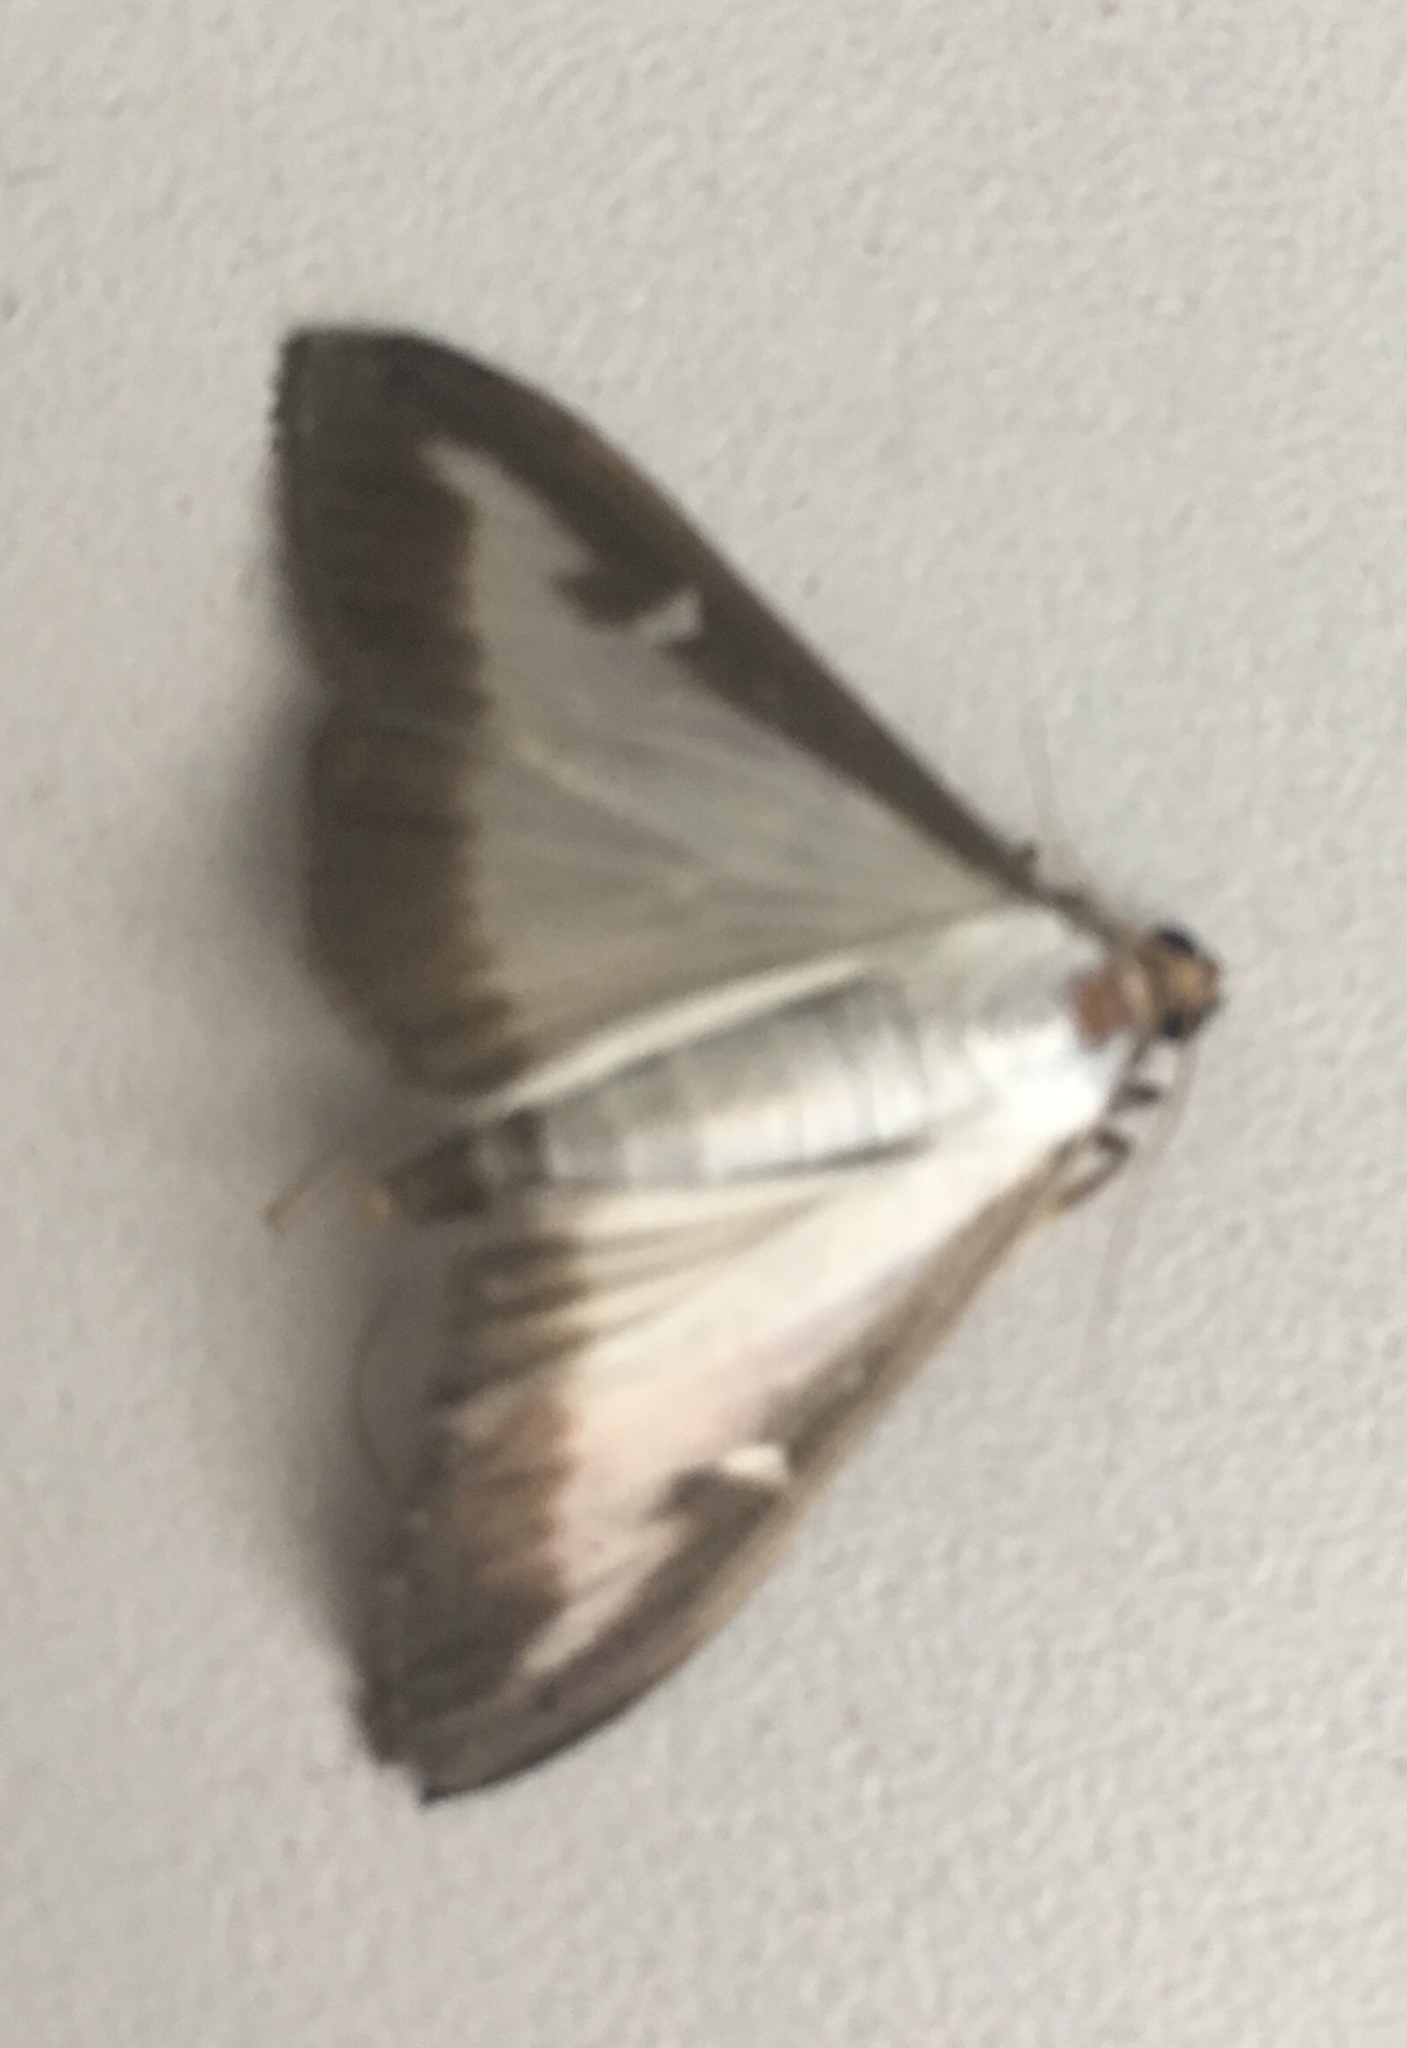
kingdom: Animalia
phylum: Arthropoda
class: Insecta
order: Lepidoptera
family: Crambidae
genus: Cydalima
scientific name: Cydalima perspectalis
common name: Box tree moth
